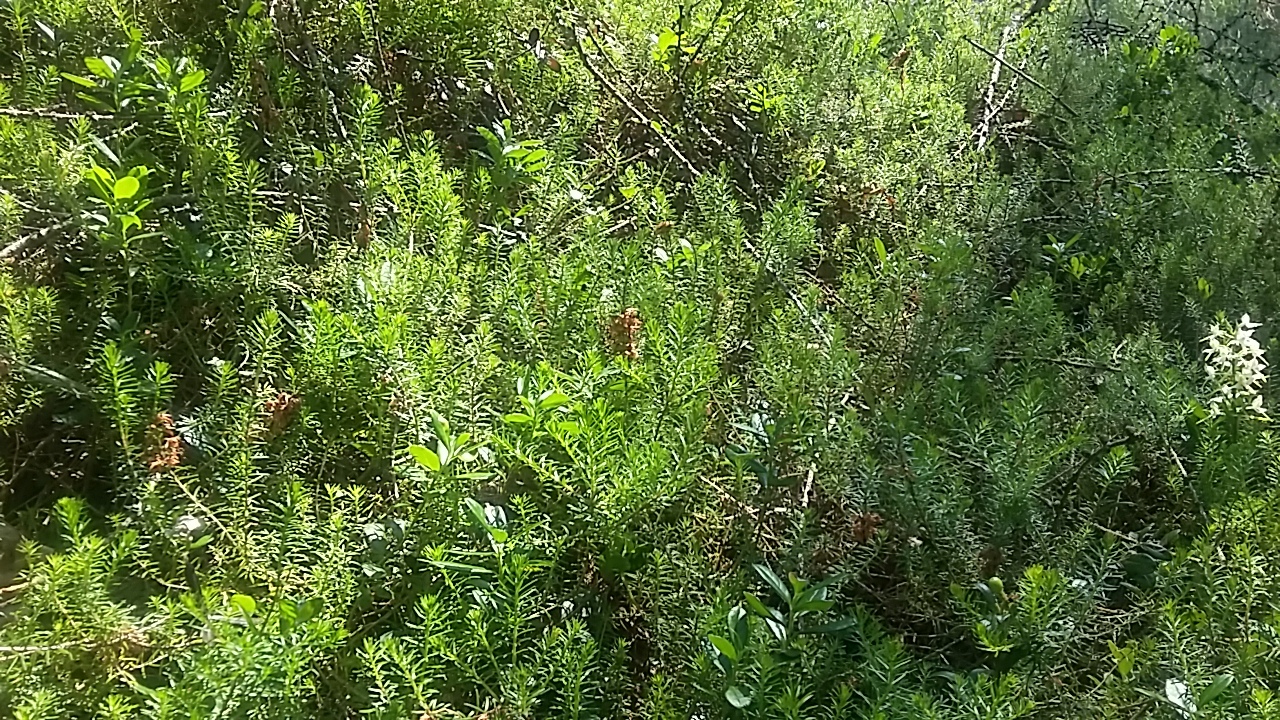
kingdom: Plantae
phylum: Tracheophyta
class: Magnoliopsida
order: Ericales
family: Ericaceae
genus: Erica
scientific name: Erica carnea
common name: Winter heath
